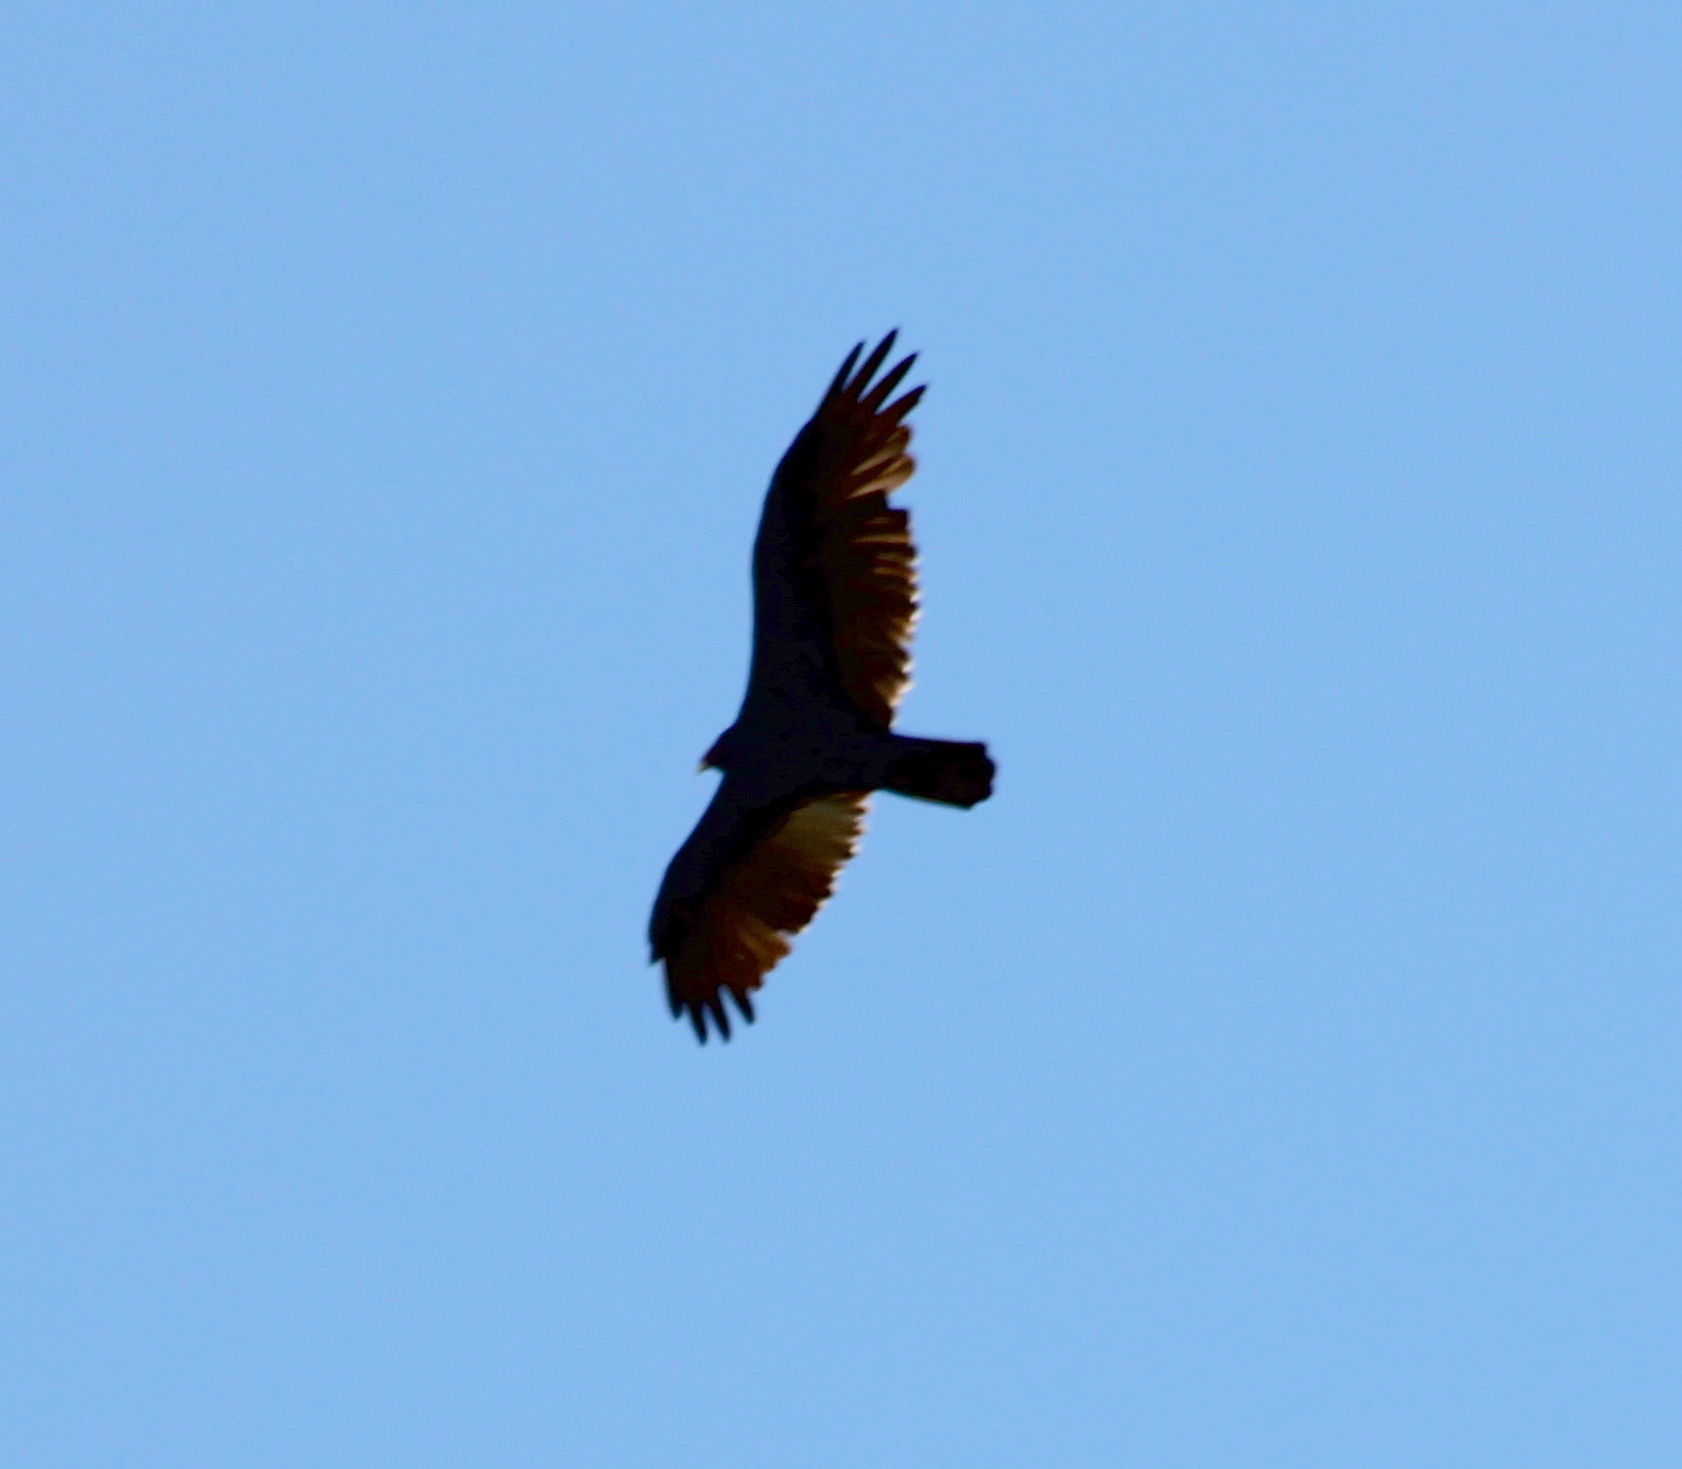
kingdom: Animalia
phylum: Chordata
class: Aves
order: Accipitriformes
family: Cathartidae
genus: Cathartes
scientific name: Cathartes aura
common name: Turkey vulture
